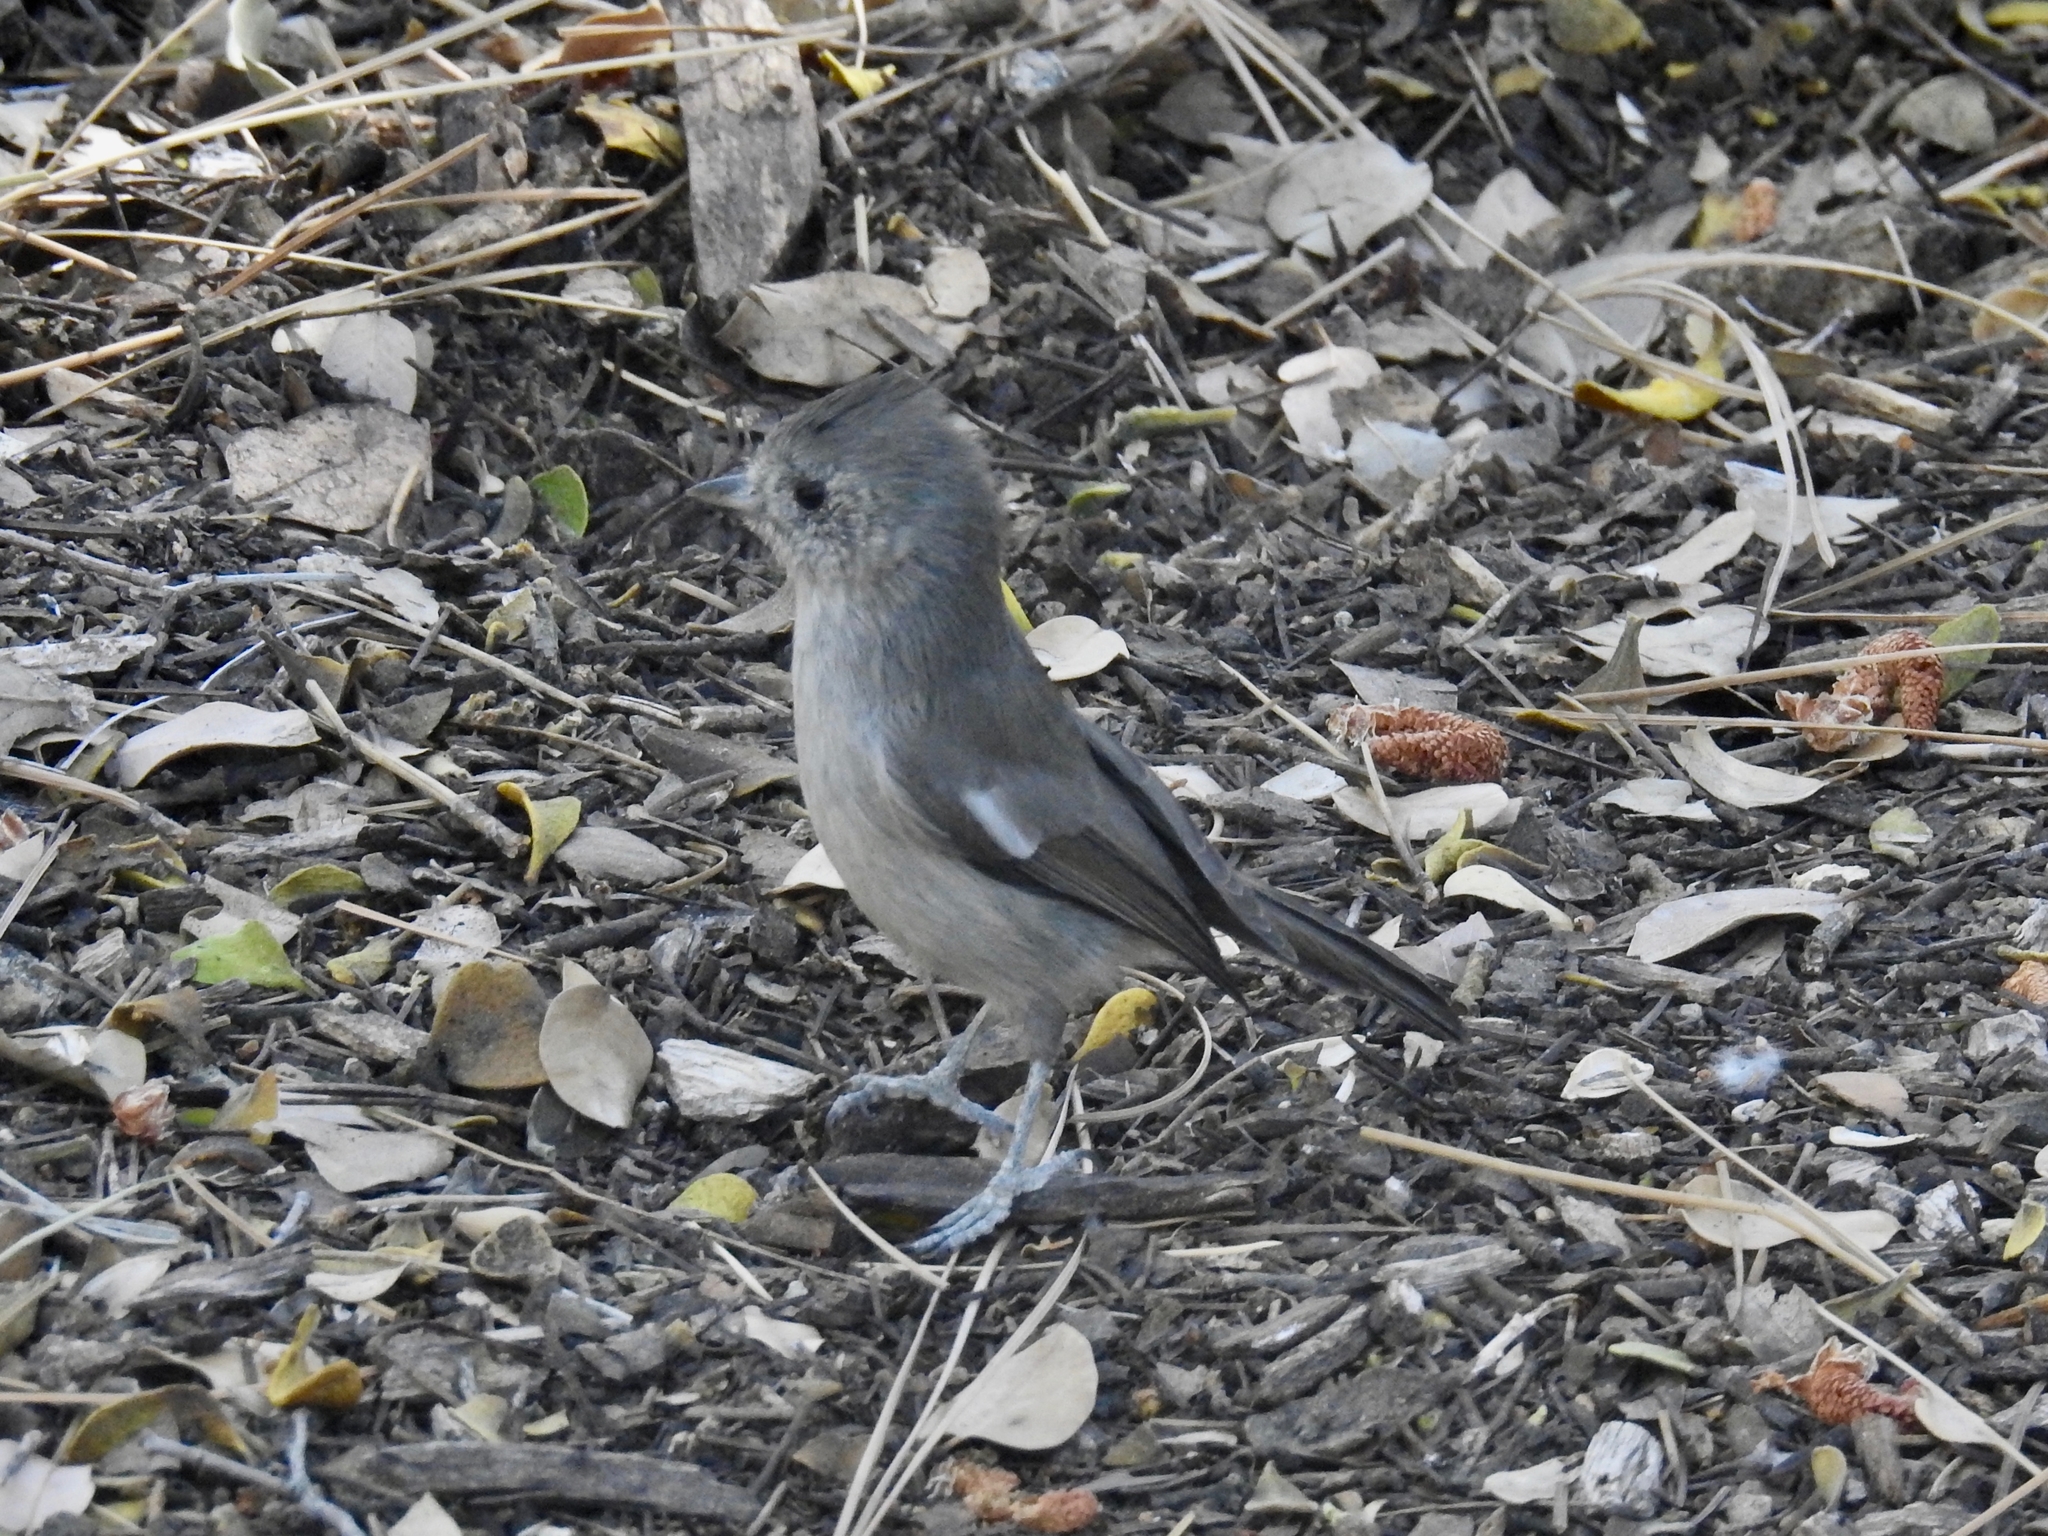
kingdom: Animalia
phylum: Chordata
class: Aves
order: Passeriformes
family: Paridae
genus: Baeolophus
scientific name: Baeolophus inornatus
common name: Oak titmouse
